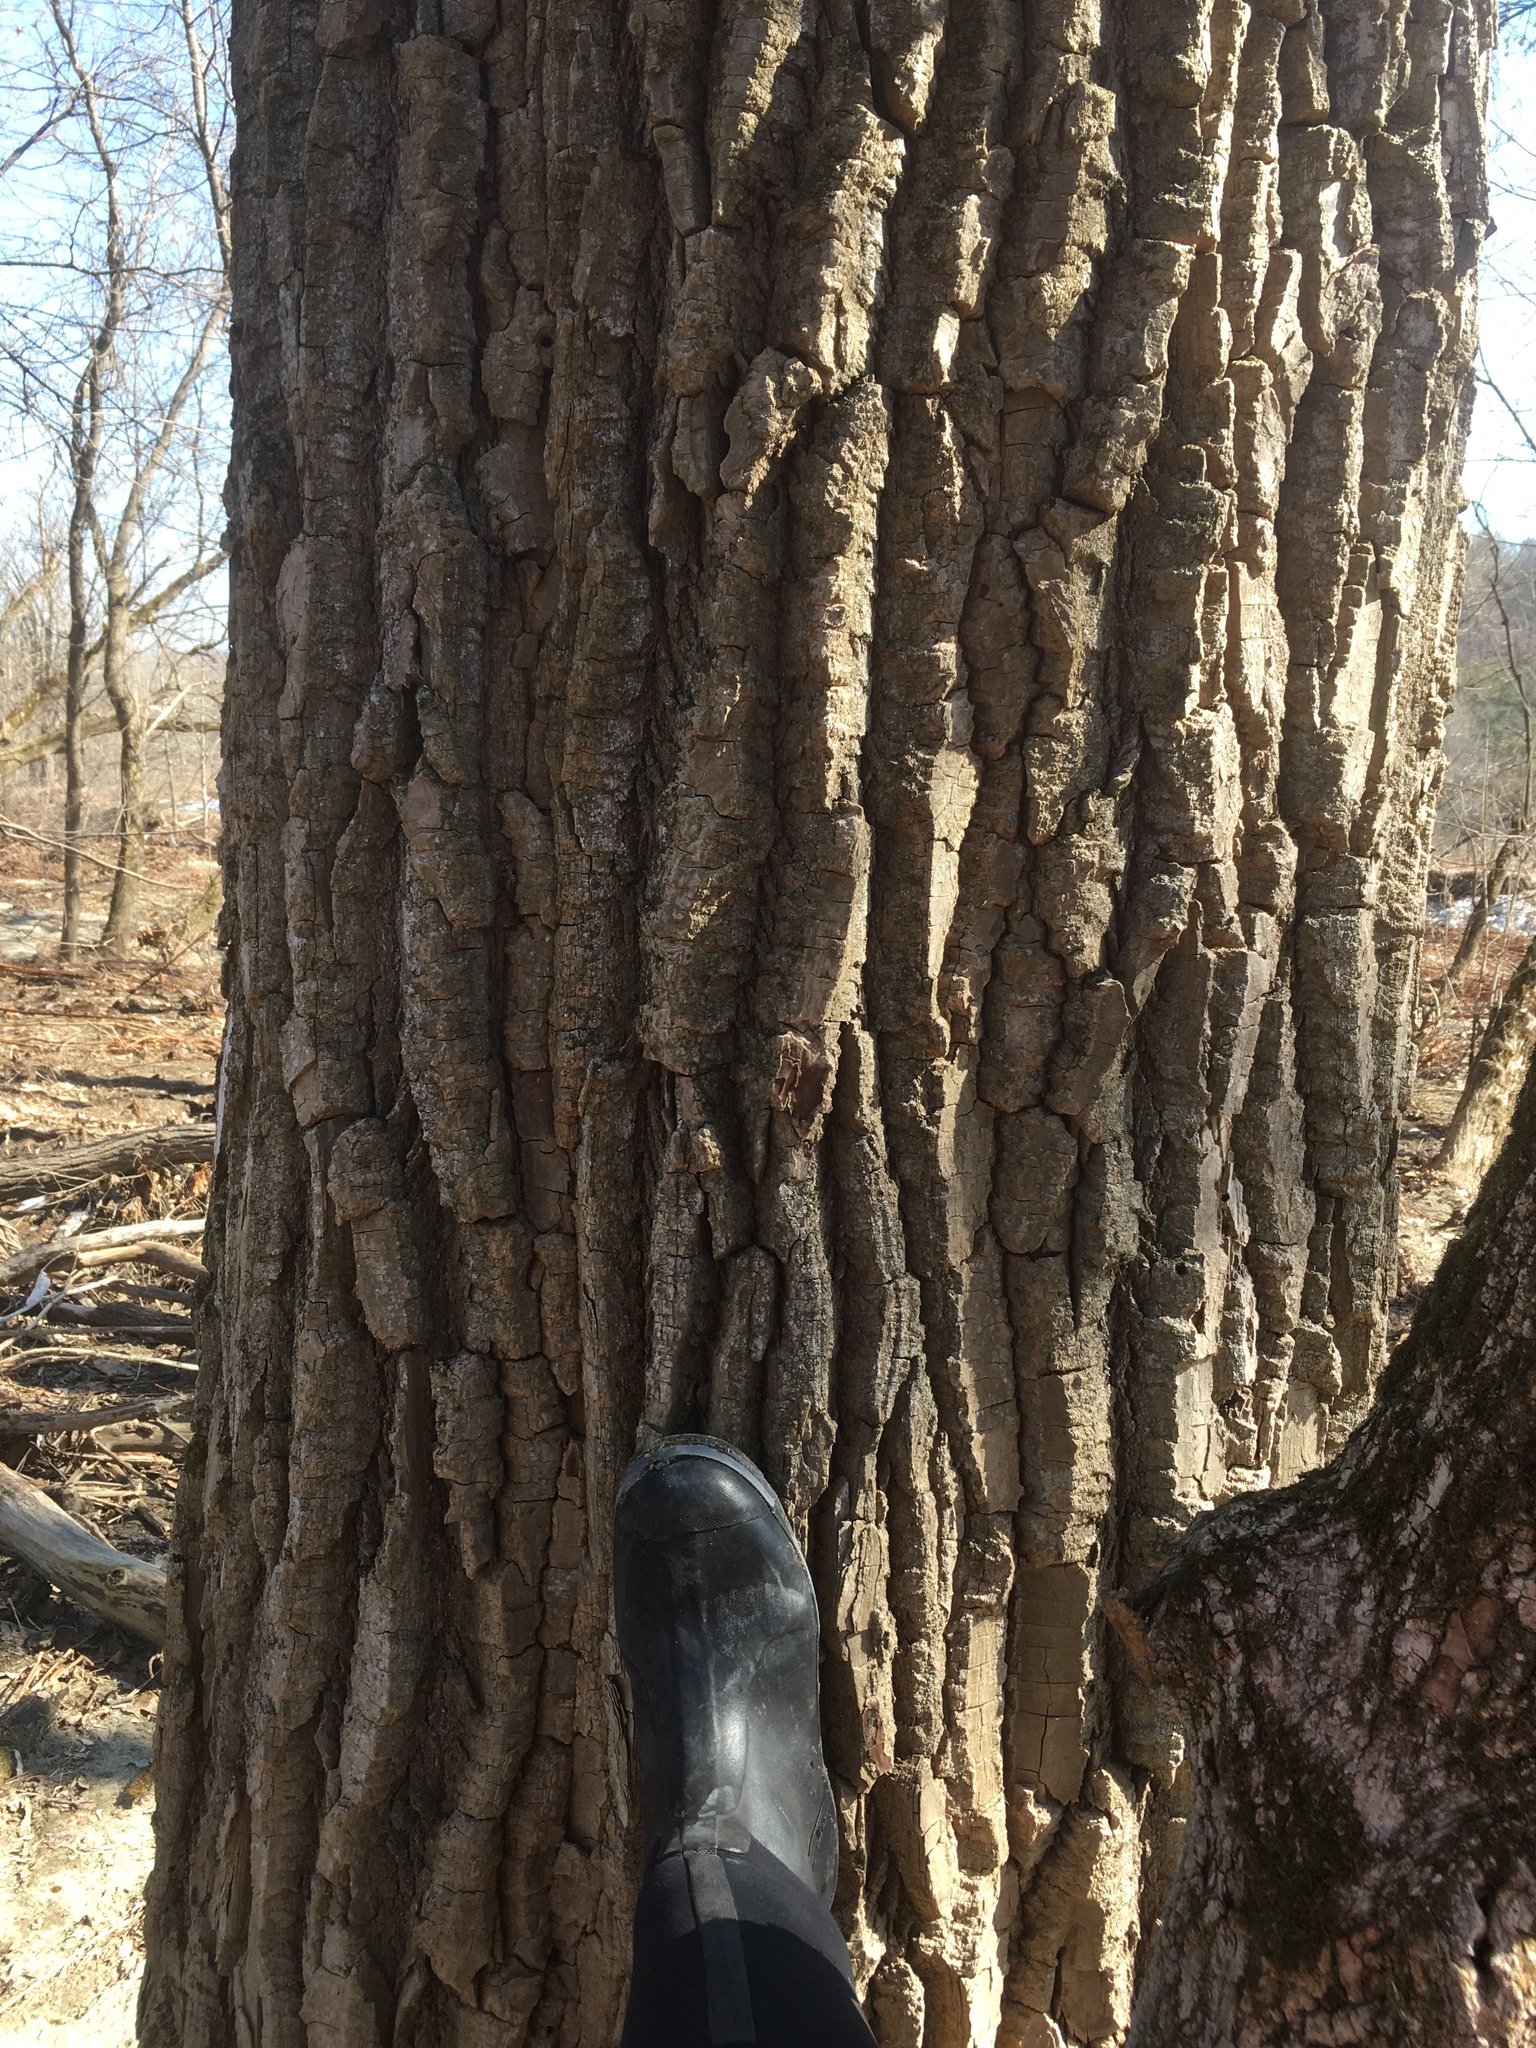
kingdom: Plantae
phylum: Tracheophyta
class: Magnoliopsida
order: Malpighiales
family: Salicaceae
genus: Populus
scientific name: Populus deltoides
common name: Eastern cottonwood
